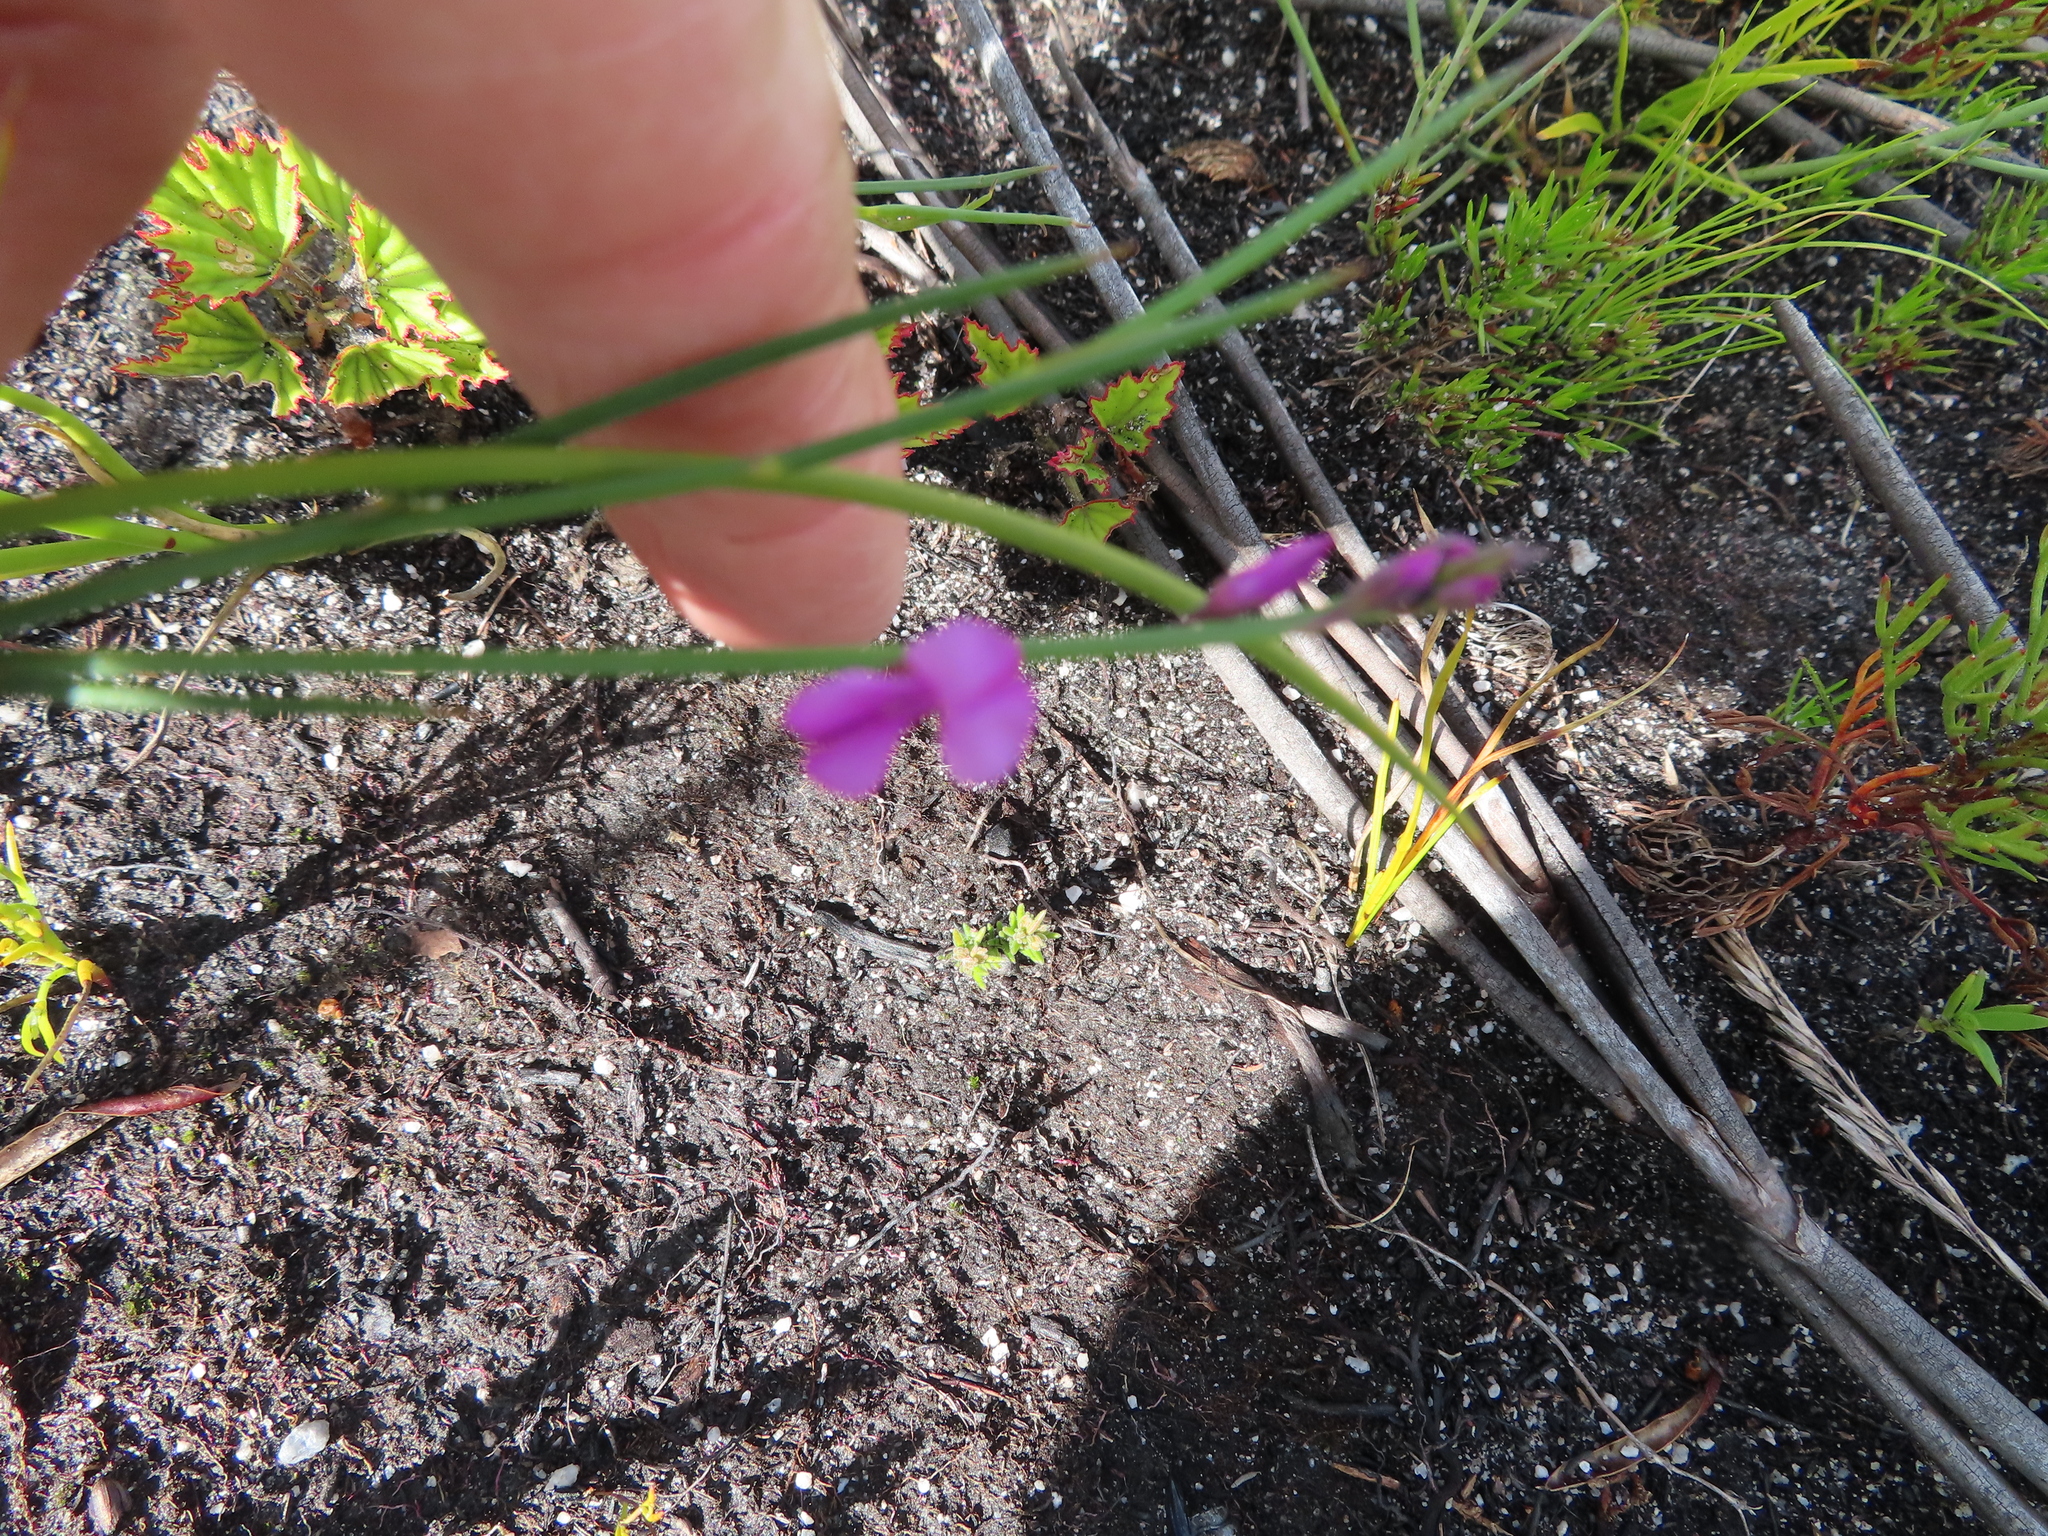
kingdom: Plantae
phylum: Tracheophyta
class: Magnoliopsida
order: Fabales
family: Fabaceae
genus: Indigofera
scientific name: Indigofera ionii
